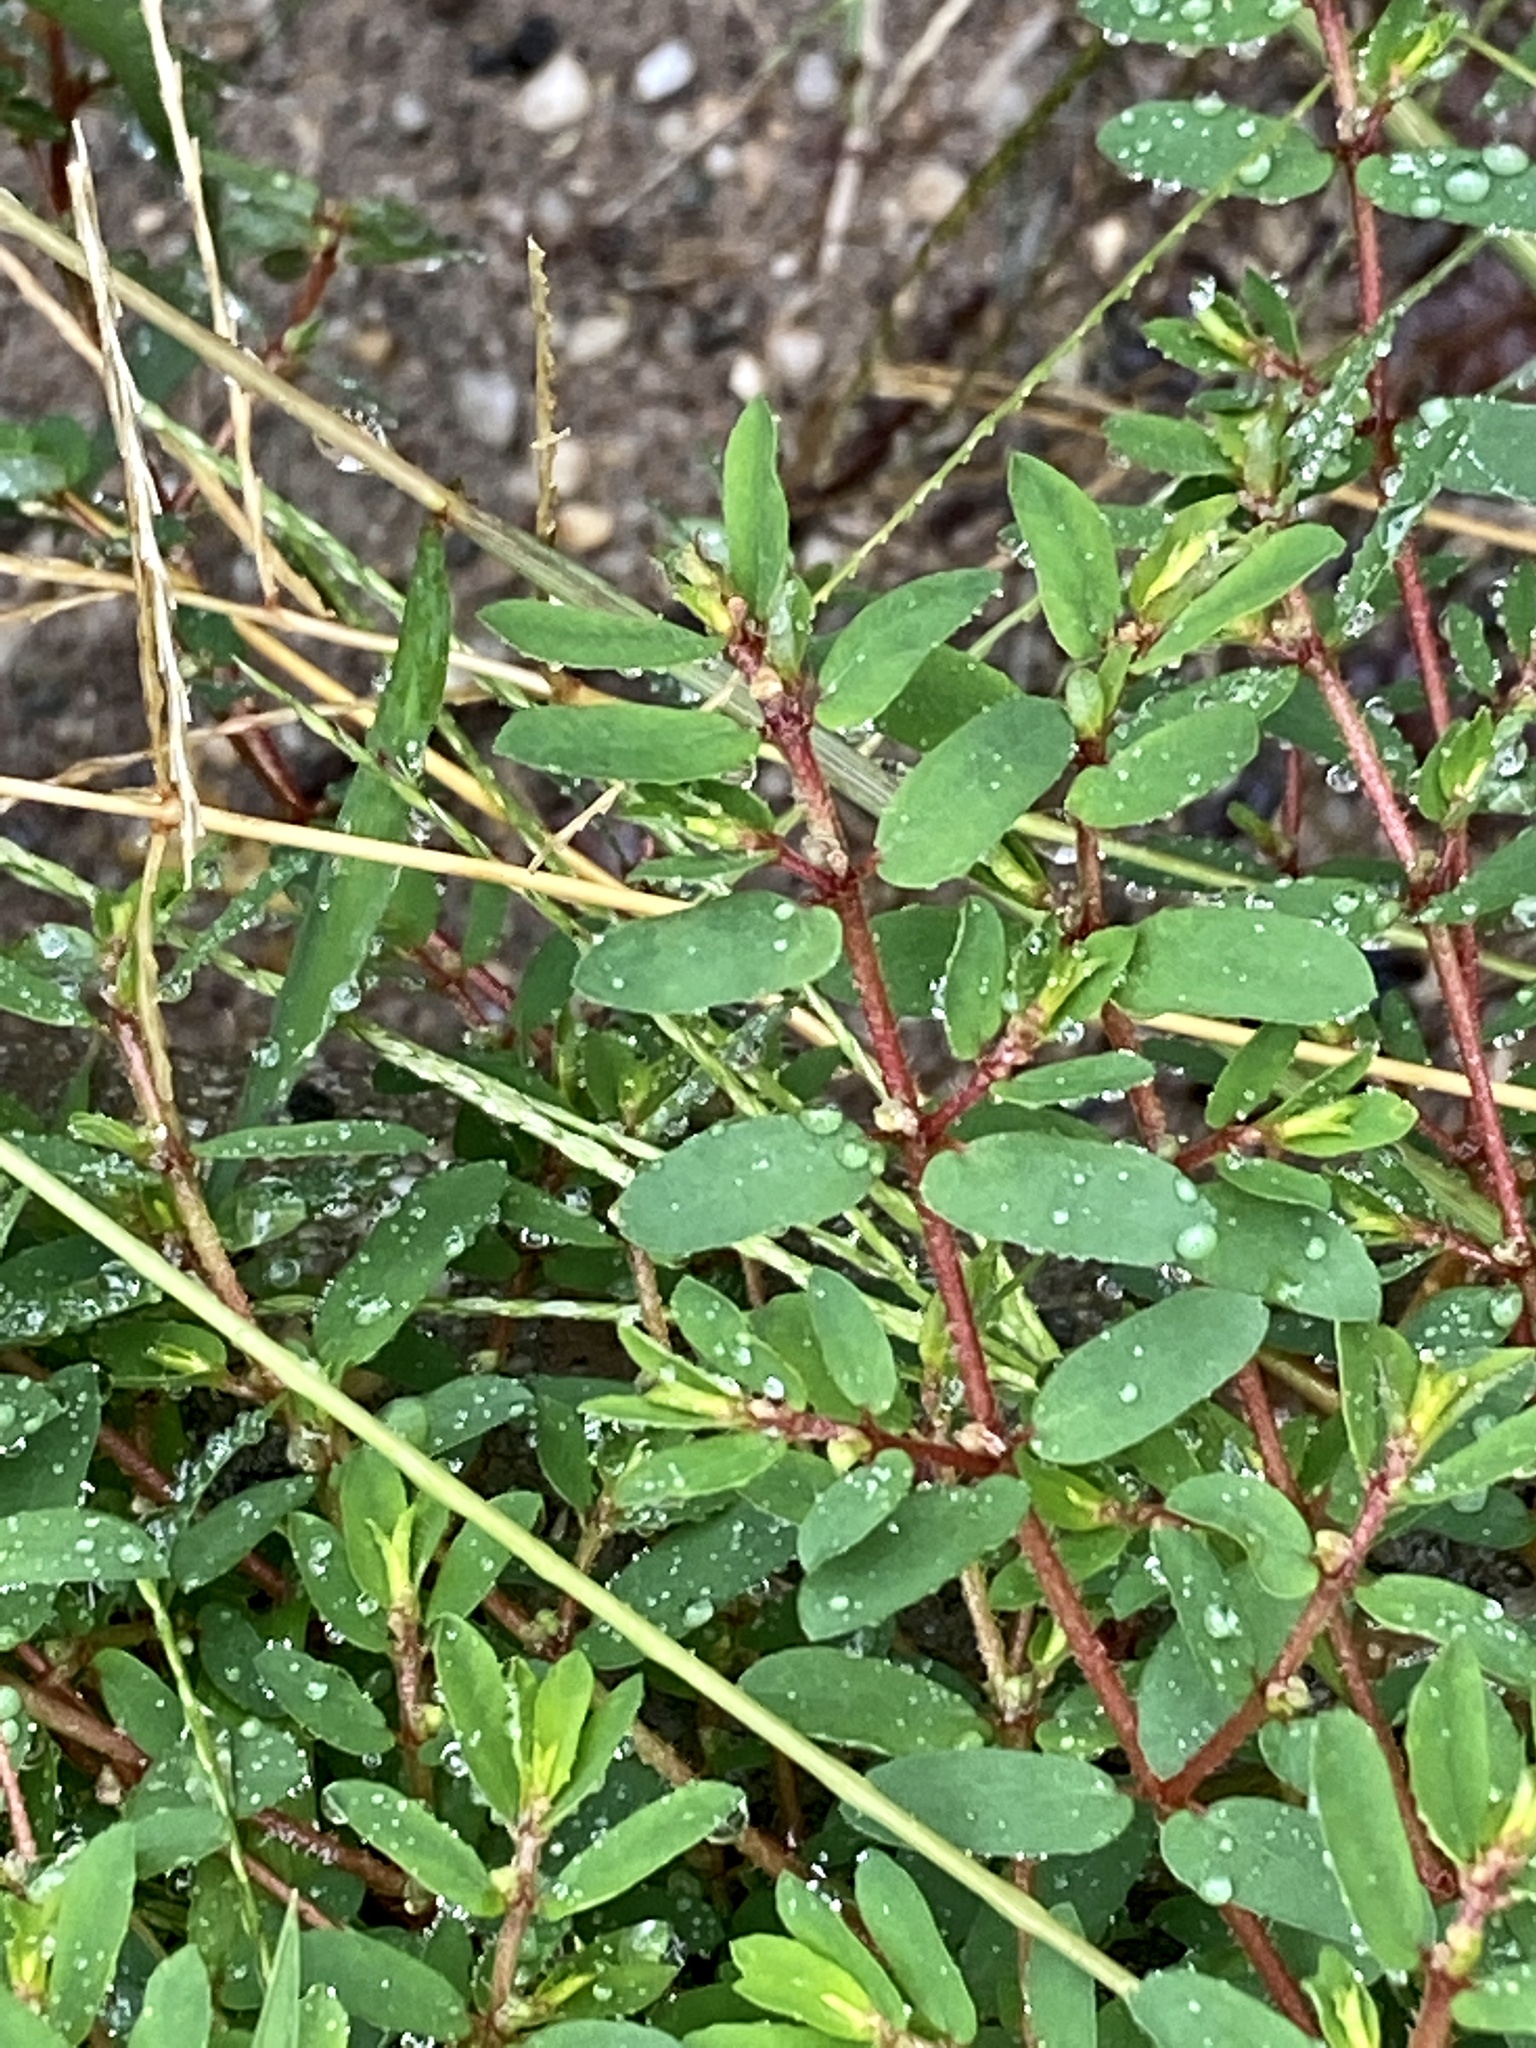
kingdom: Plantae
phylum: Tracheophyta
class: Magnoliopsida
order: Malpighiales
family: Euphorbiaceae
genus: Euphorbia
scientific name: Euphorbia maculata
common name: Spotted spurge
